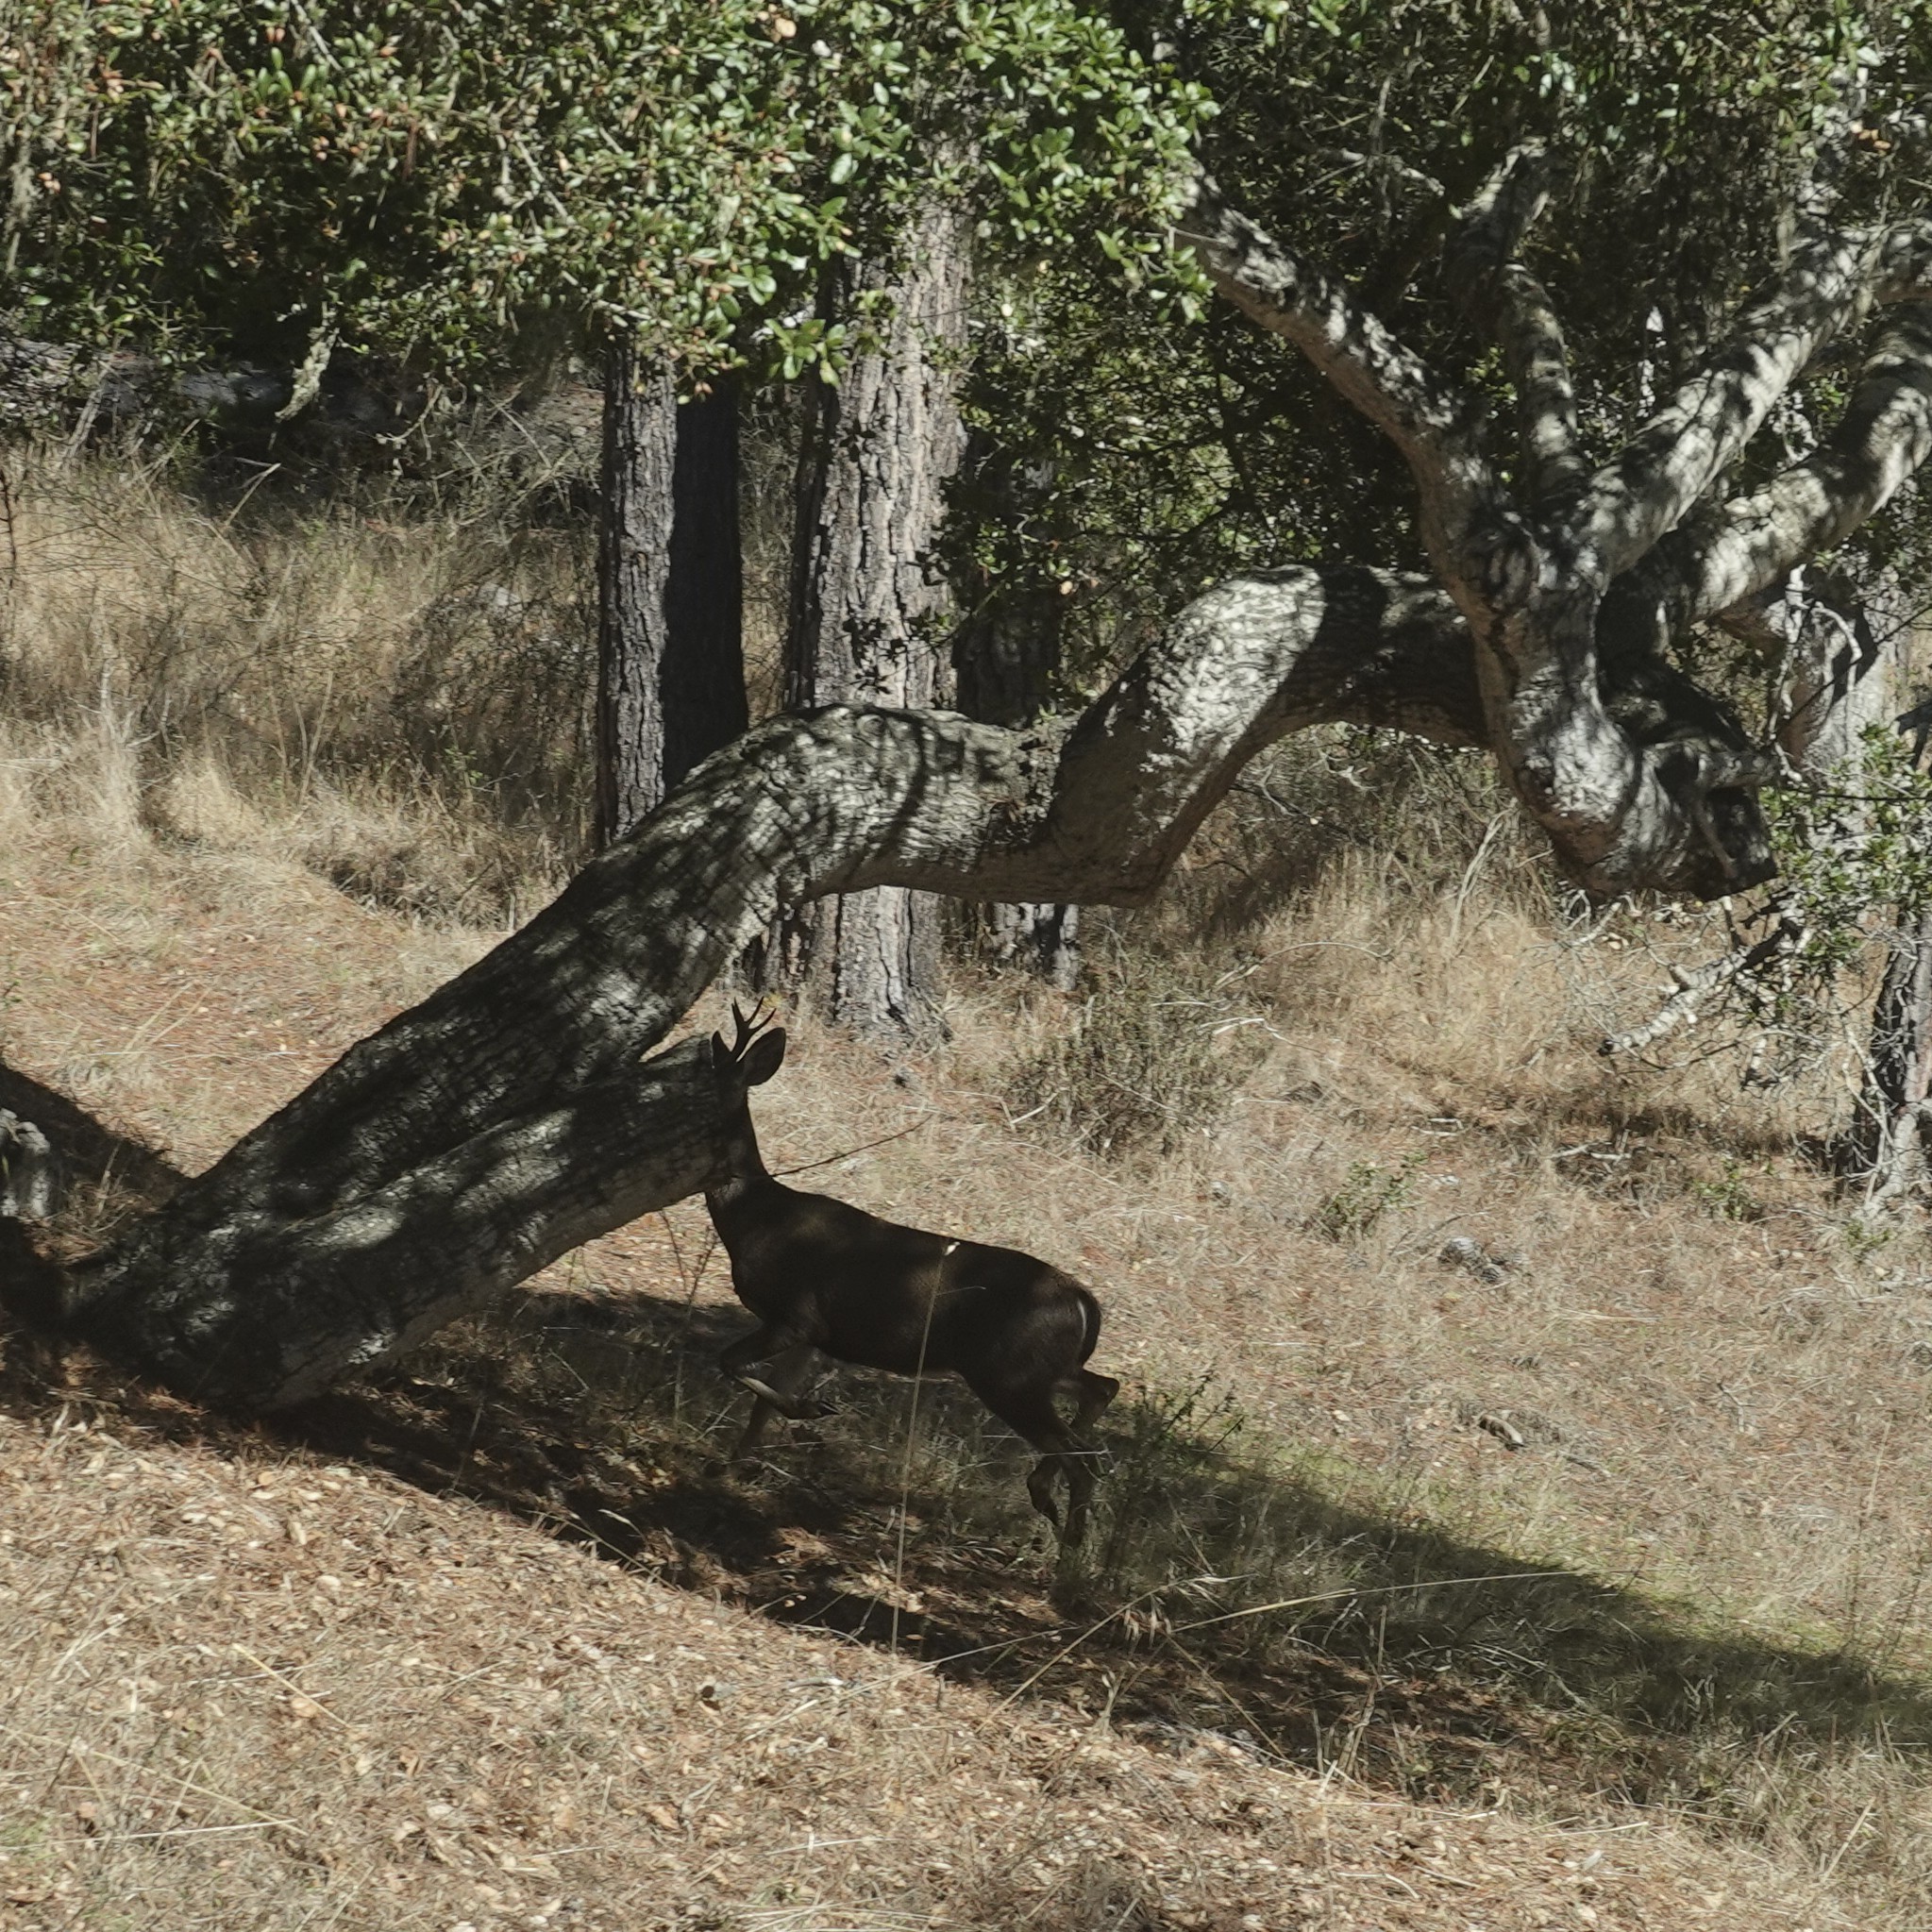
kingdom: Animalia
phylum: Chordata
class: Mammalia
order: Artiodactyla
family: Cervidae
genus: Odocoileus
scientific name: Odocoileus hemionus
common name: Mule deer
